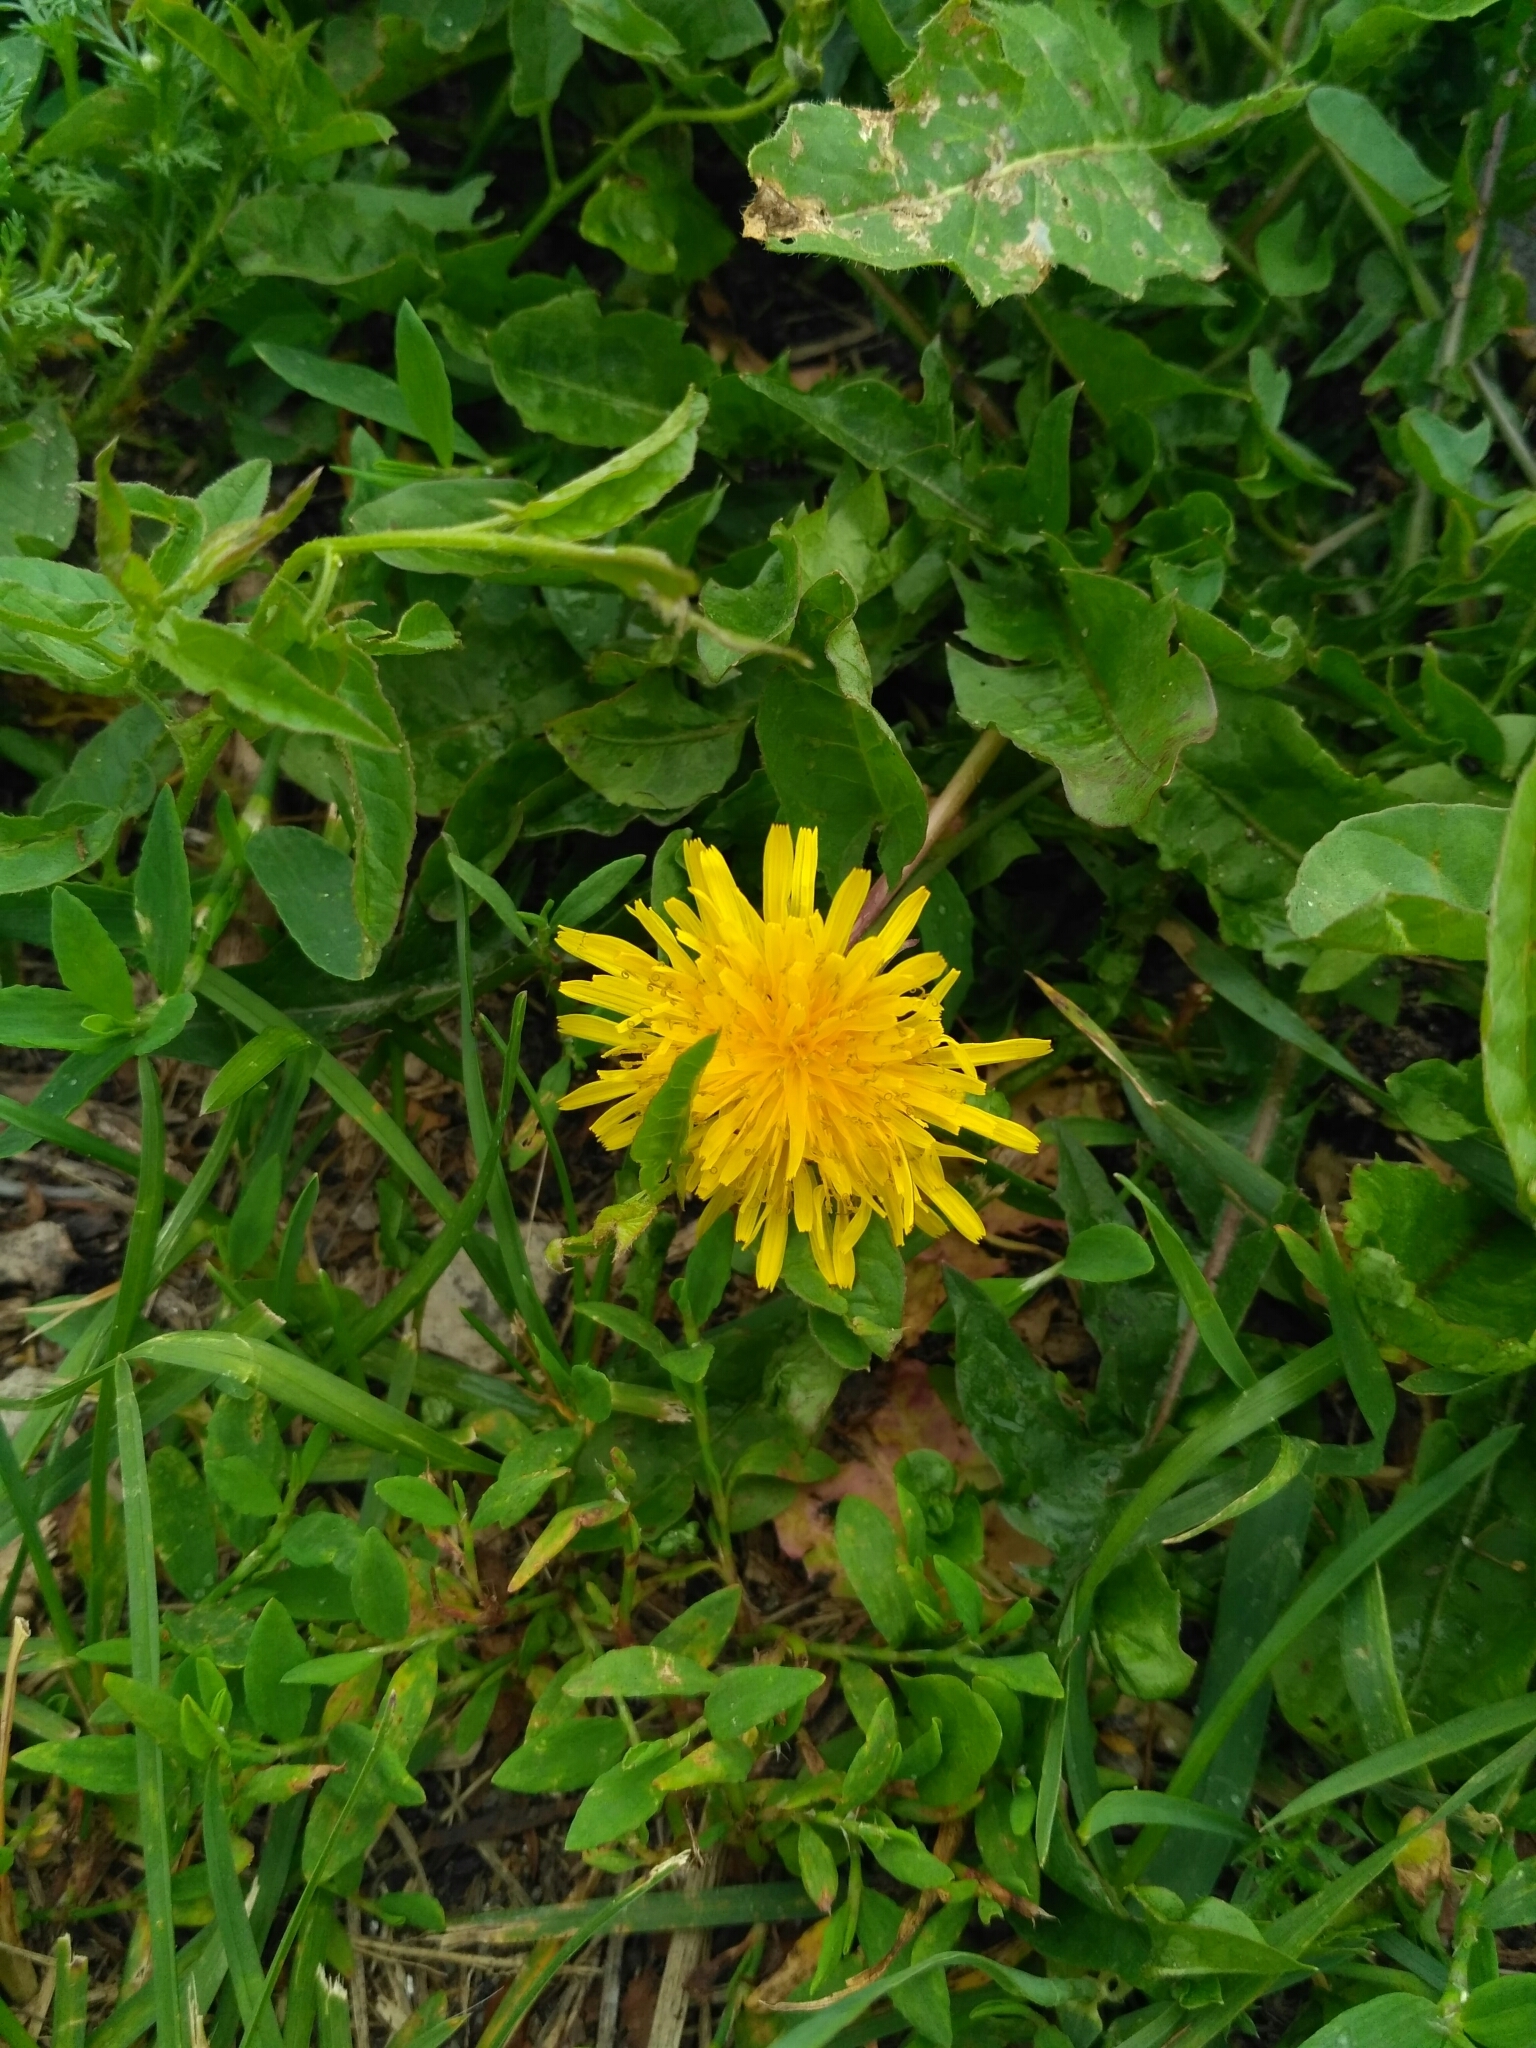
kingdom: Plantae
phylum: Tracheophyta
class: Magnoliopsida
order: Asterales
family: Asteraceae
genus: Taraxacum
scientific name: Taraxacum officinale
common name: Common dandelion
